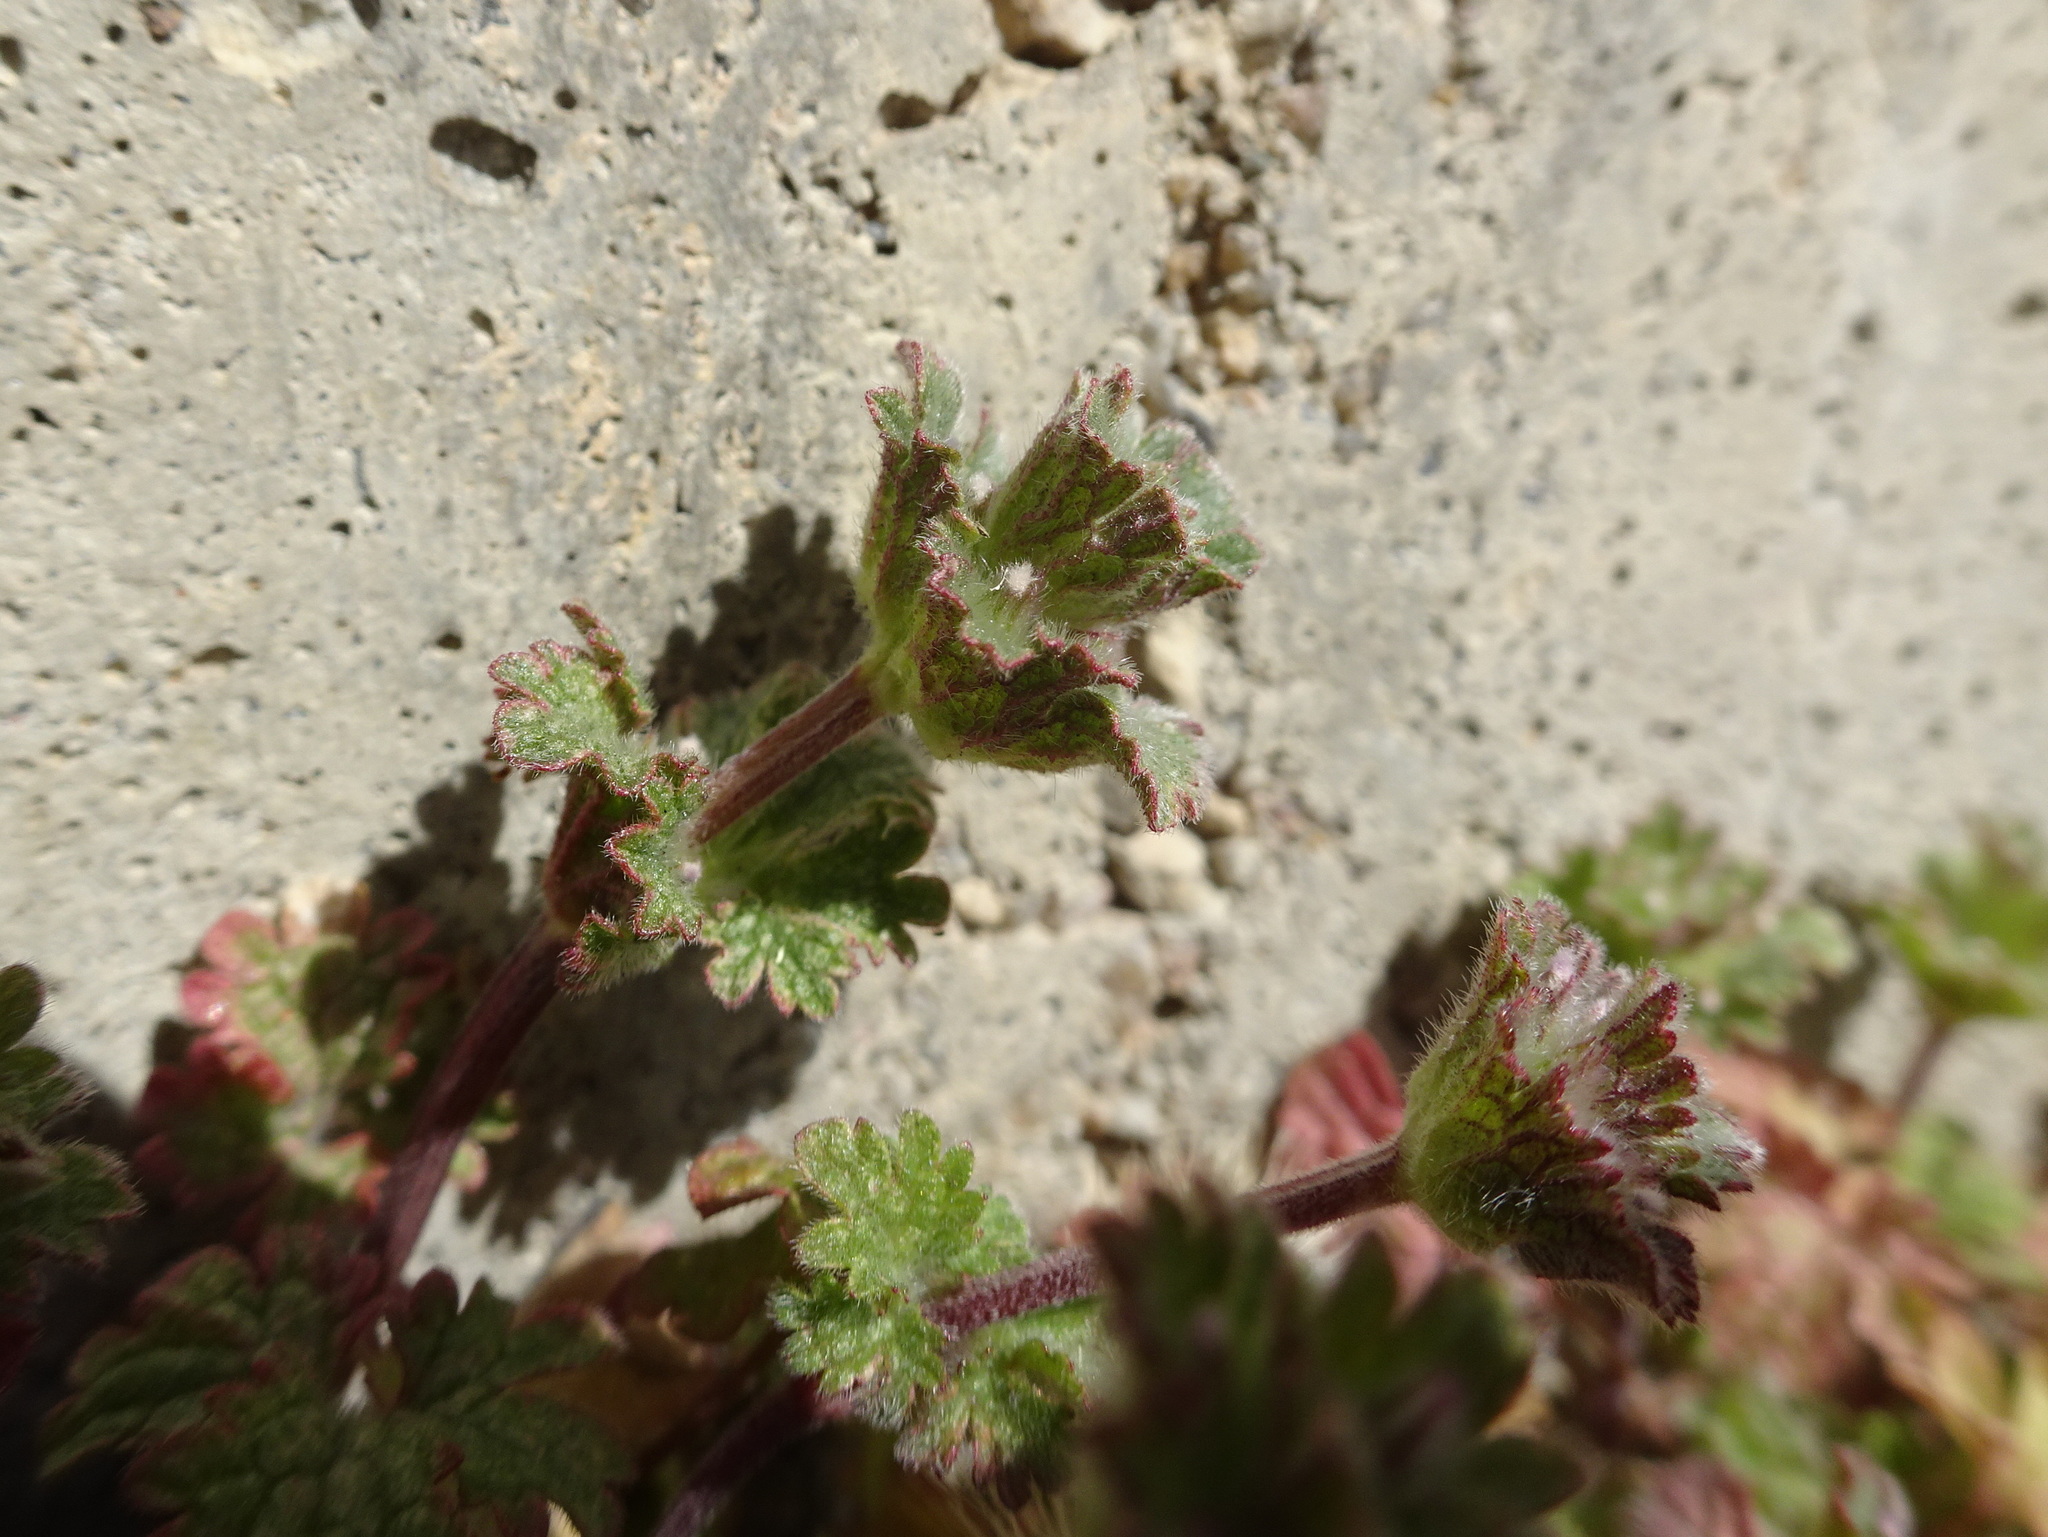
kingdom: Plantae
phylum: Tracheophyta
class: Magnoliopsida
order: Lamiales
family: Lamiaceae
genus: Lamium
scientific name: Lamium amplexicaule
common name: Henbit dead-nettle
